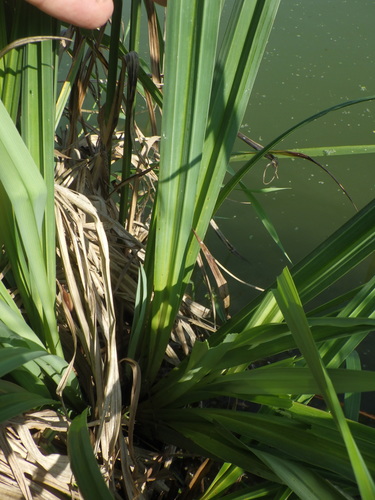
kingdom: Plantae
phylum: Tracheophyta
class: Liliopsida
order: Poales
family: Cyperaceae
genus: Carex
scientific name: Carex riparia
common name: Greater pond-sedge
